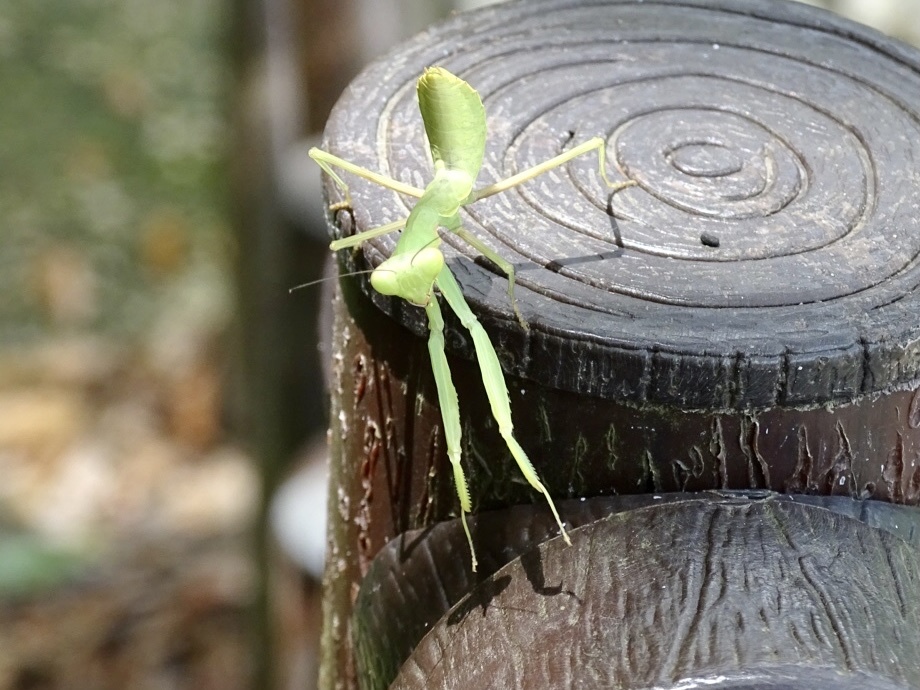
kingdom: Animalia
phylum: Arthropoda
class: Insecta
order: Mantodea
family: Mantidae
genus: Hierodula
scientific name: Hierodula patellifera
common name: Asian mantis
